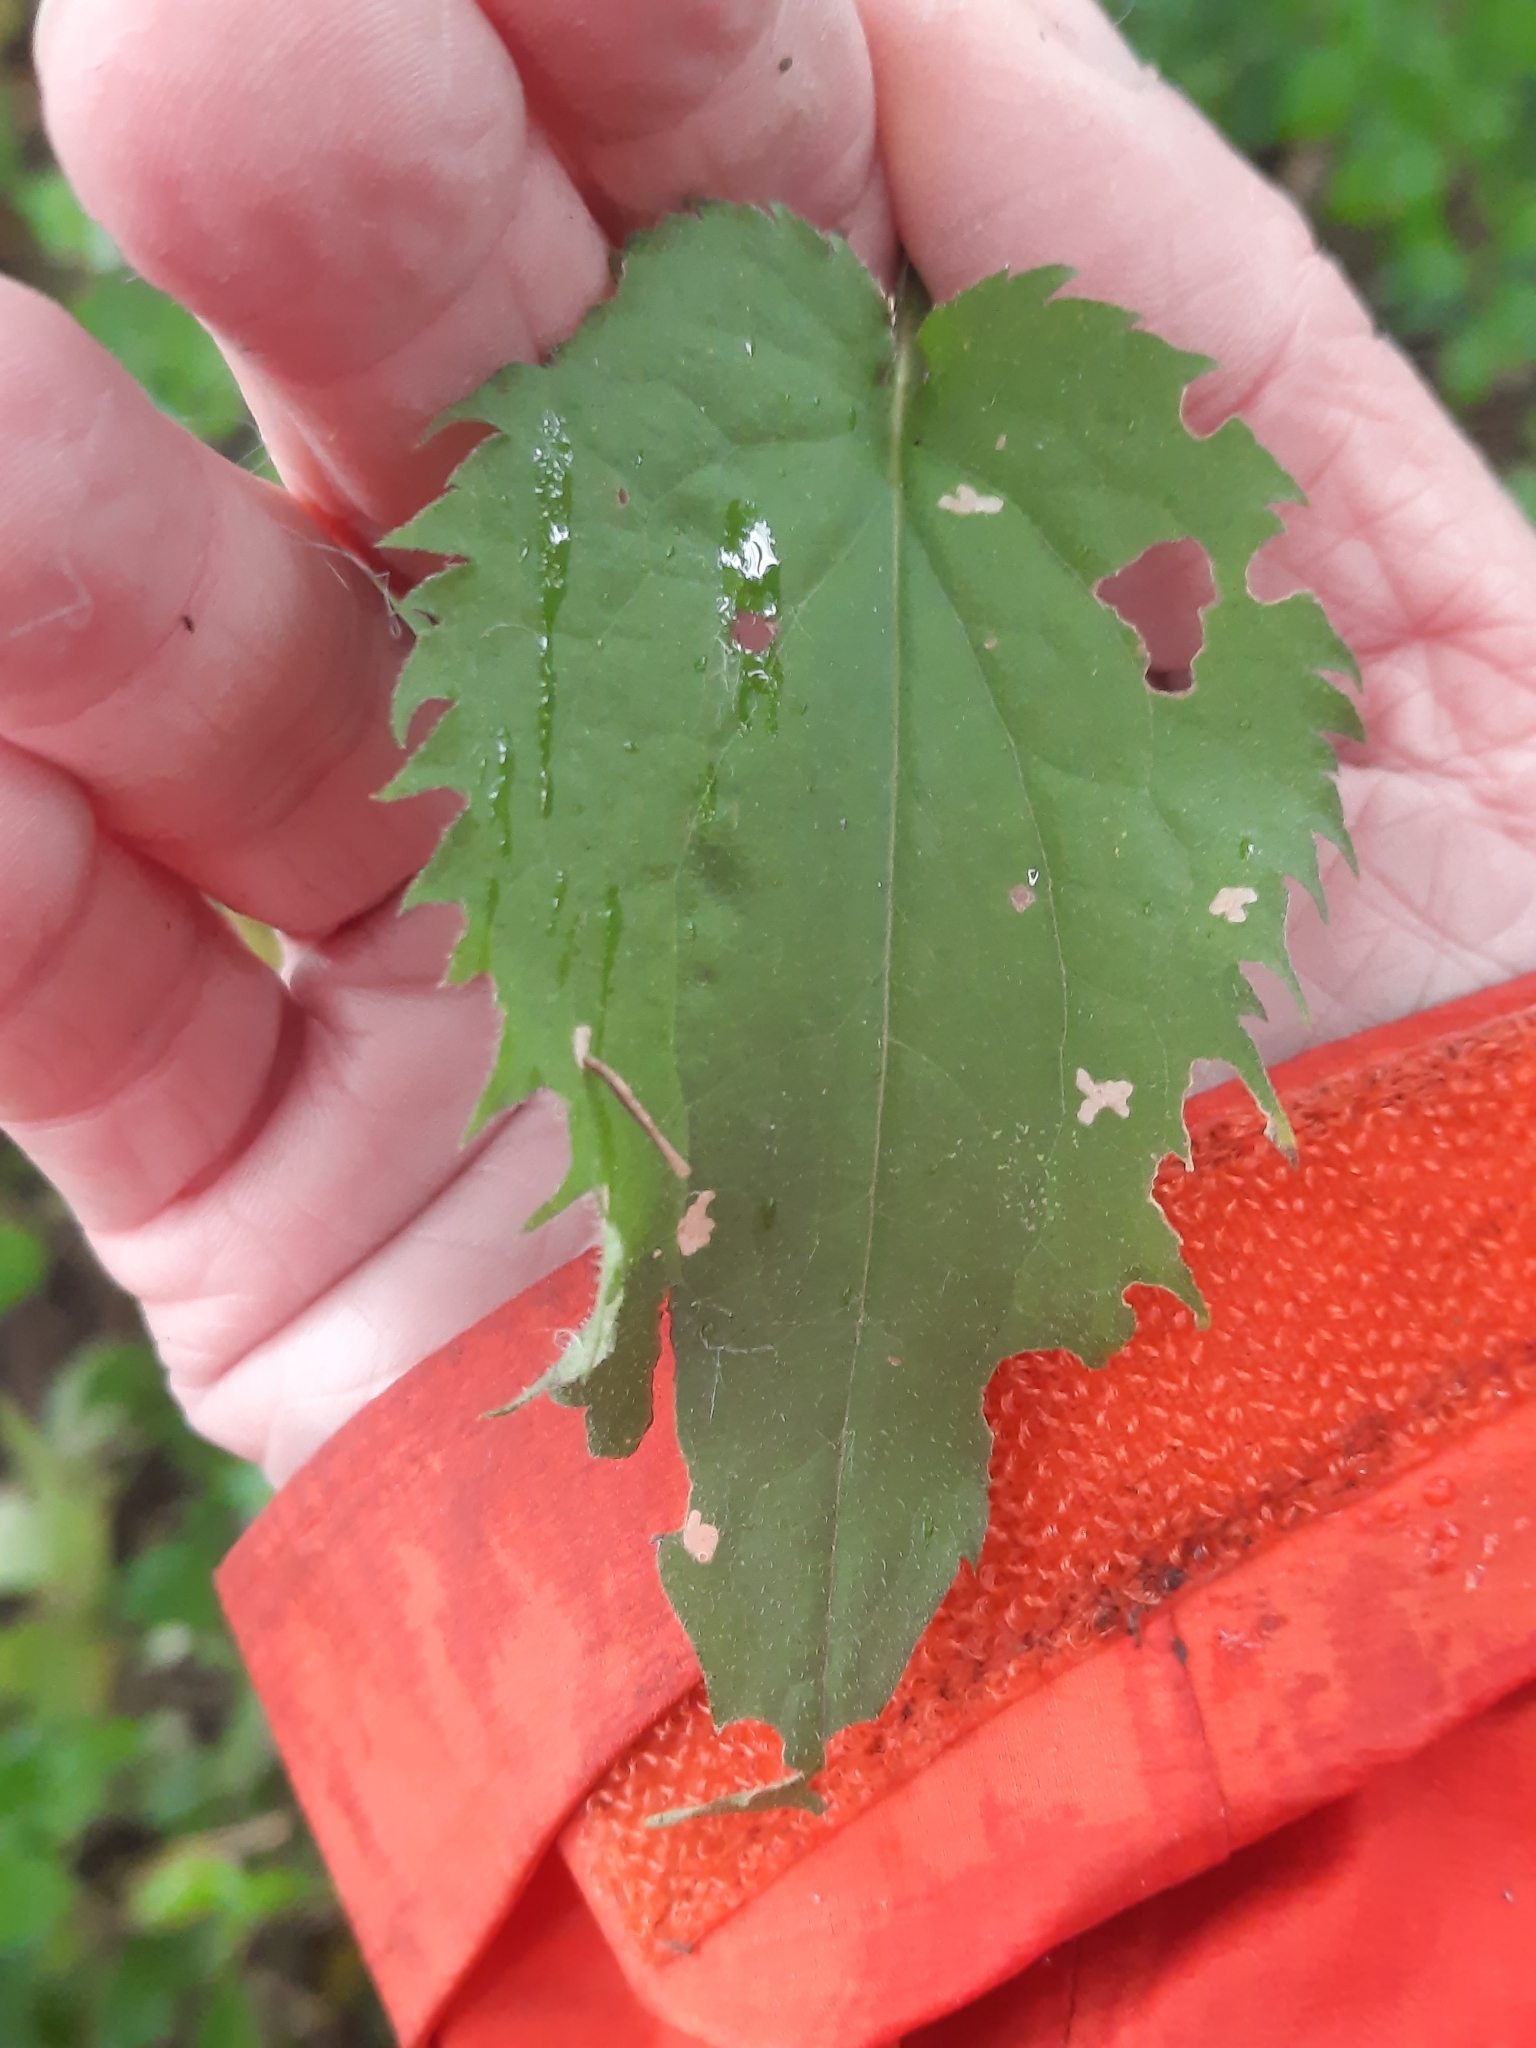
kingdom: Plantae
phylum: Tracheophyta
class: Magnoliopsida
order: Asterales
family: Asteraceae
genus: Symphyotrichum
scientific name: Symphyotrichum cordifolium
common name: Beeweed
